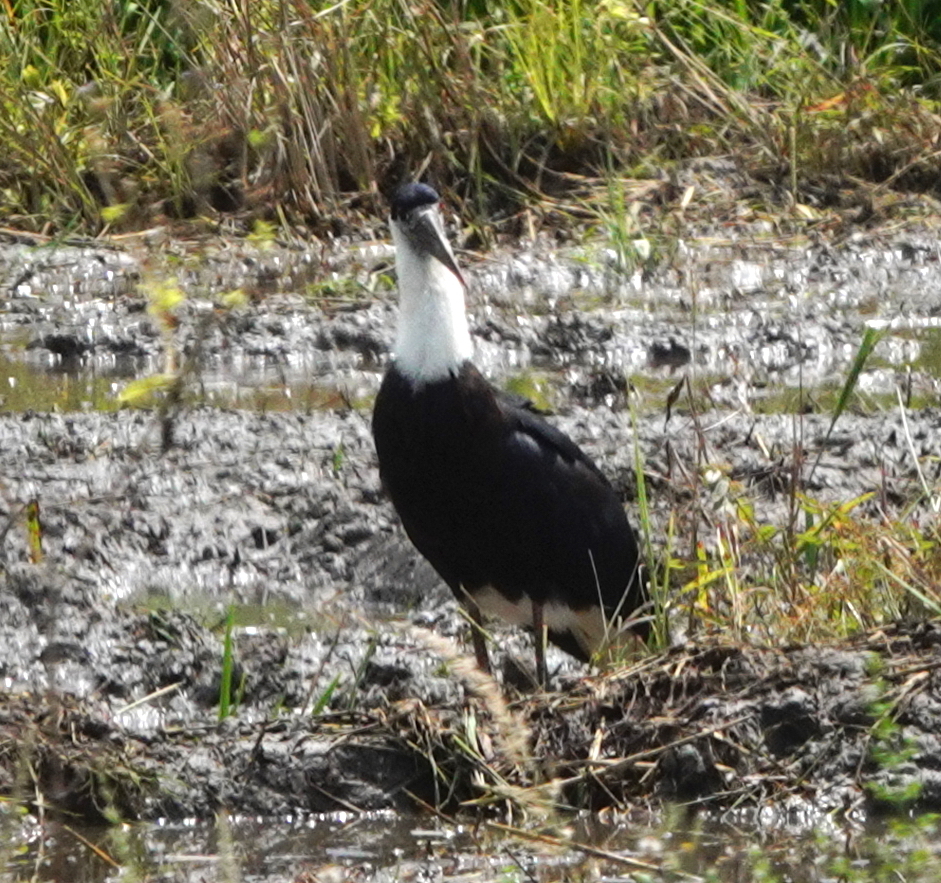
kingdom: Animalia
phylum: Chordata
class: Aves
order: Ciconiiformes
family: Ciconiidae
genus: Ciconia
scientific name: Ciconia episcopus
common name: Woolly-necked stork
